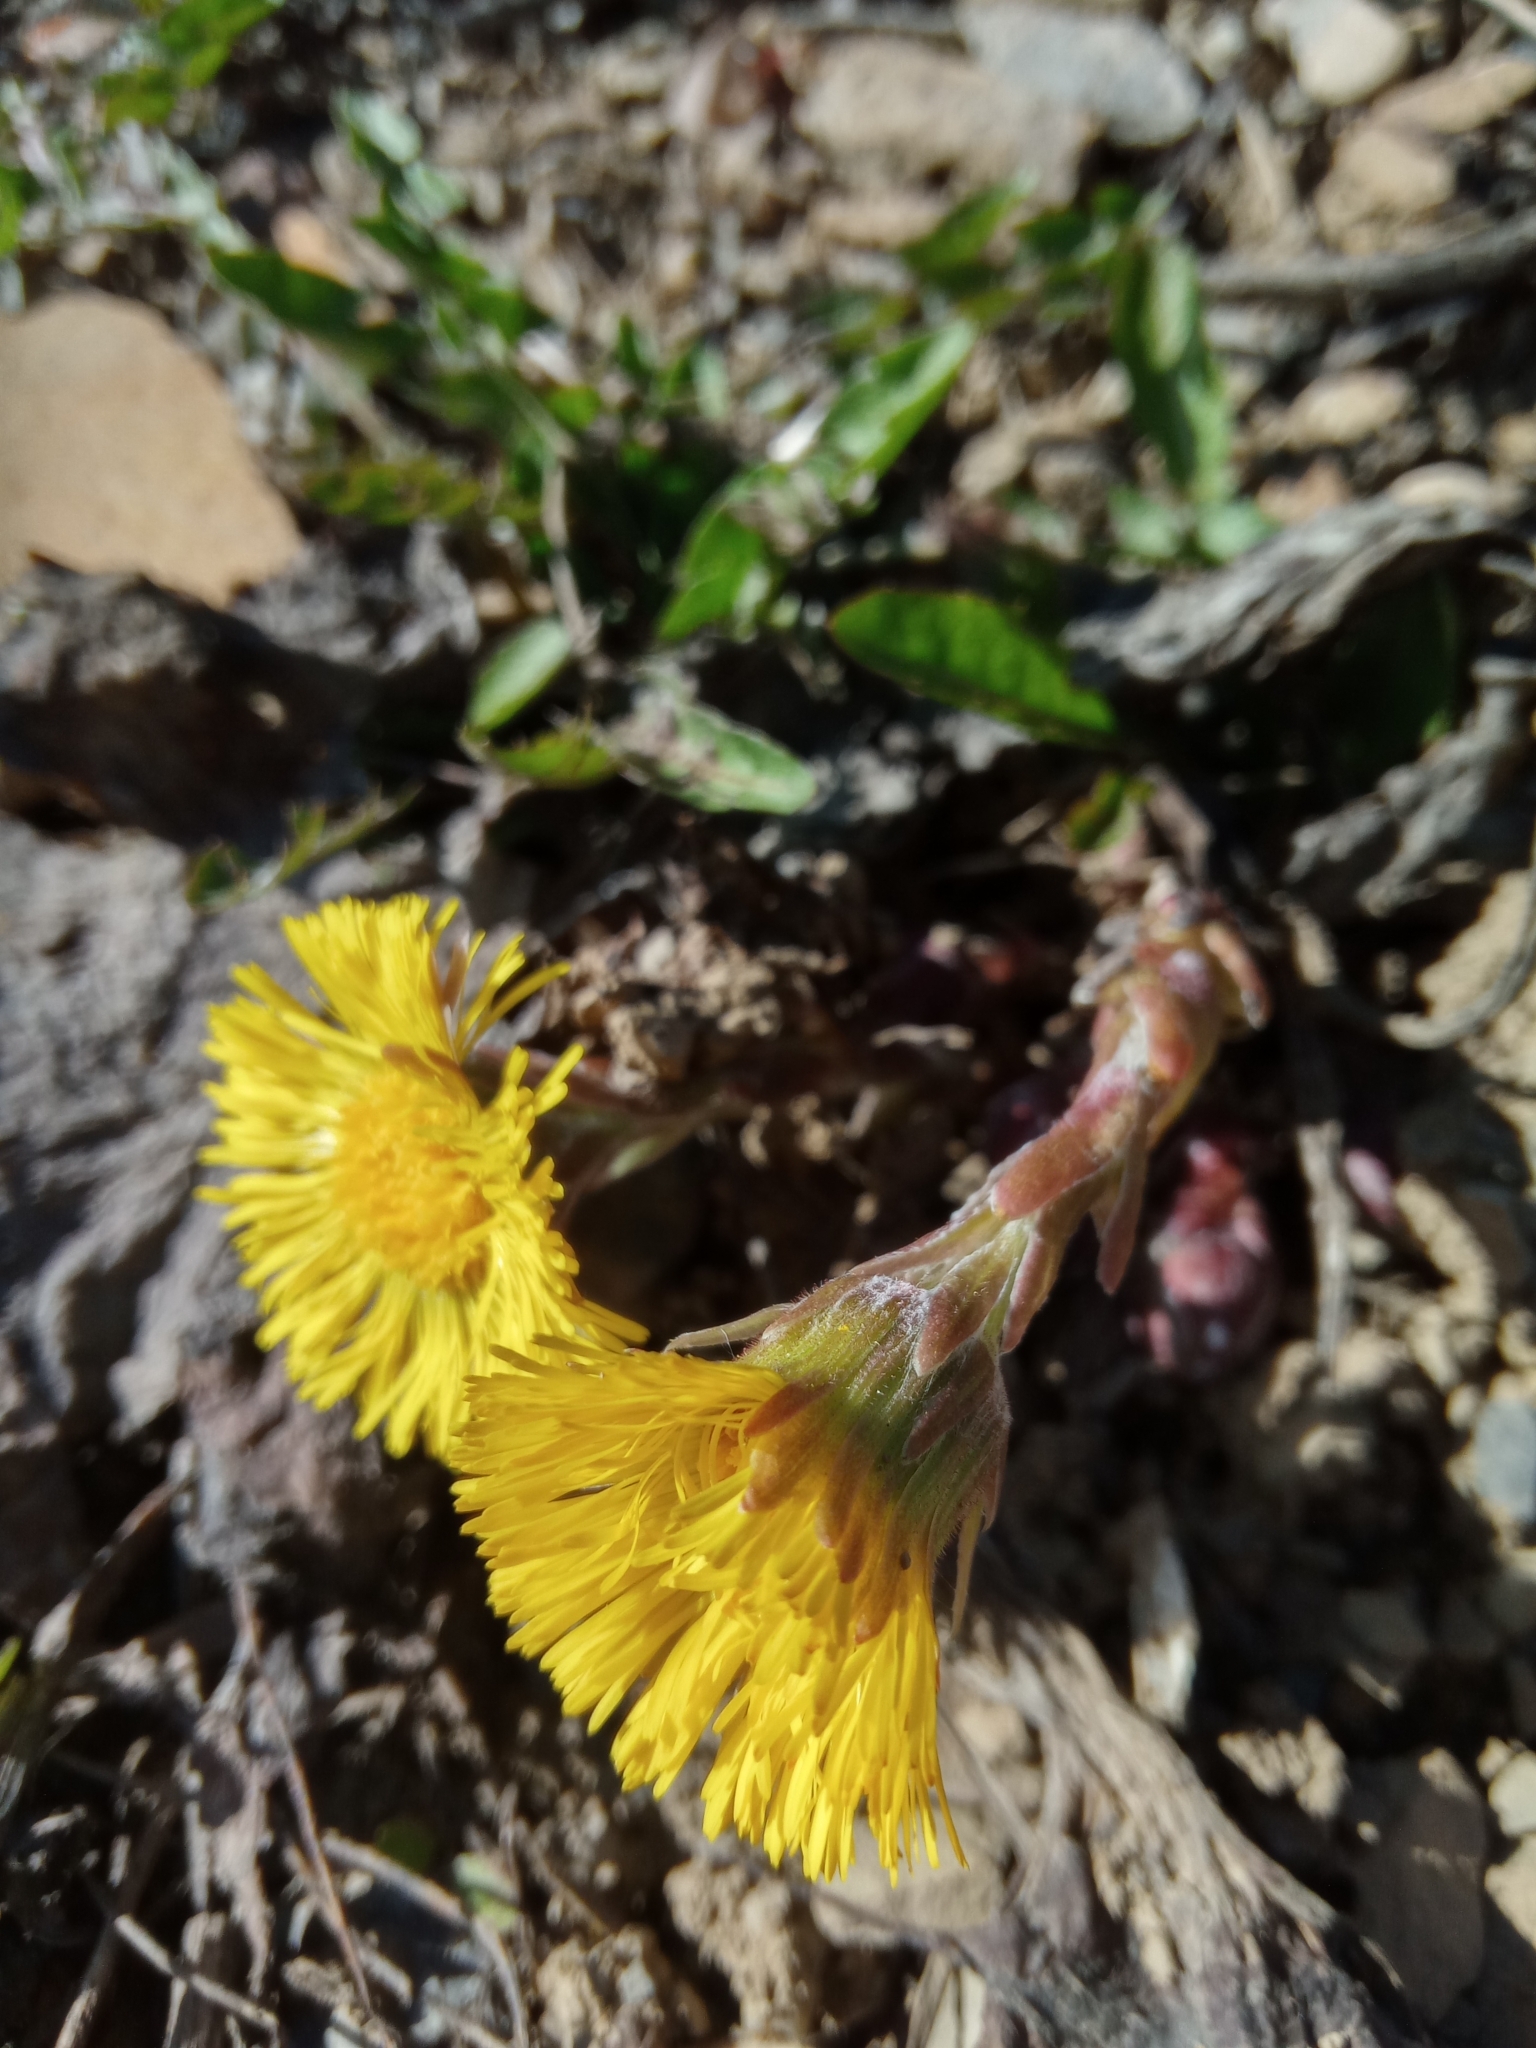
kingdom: Plantae
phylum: Tracheophyta
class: Magnoliopsida
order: Asterales
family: Asteraceae
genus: Tussilago
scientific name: Tussilago farfara
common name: Coltsfoot
